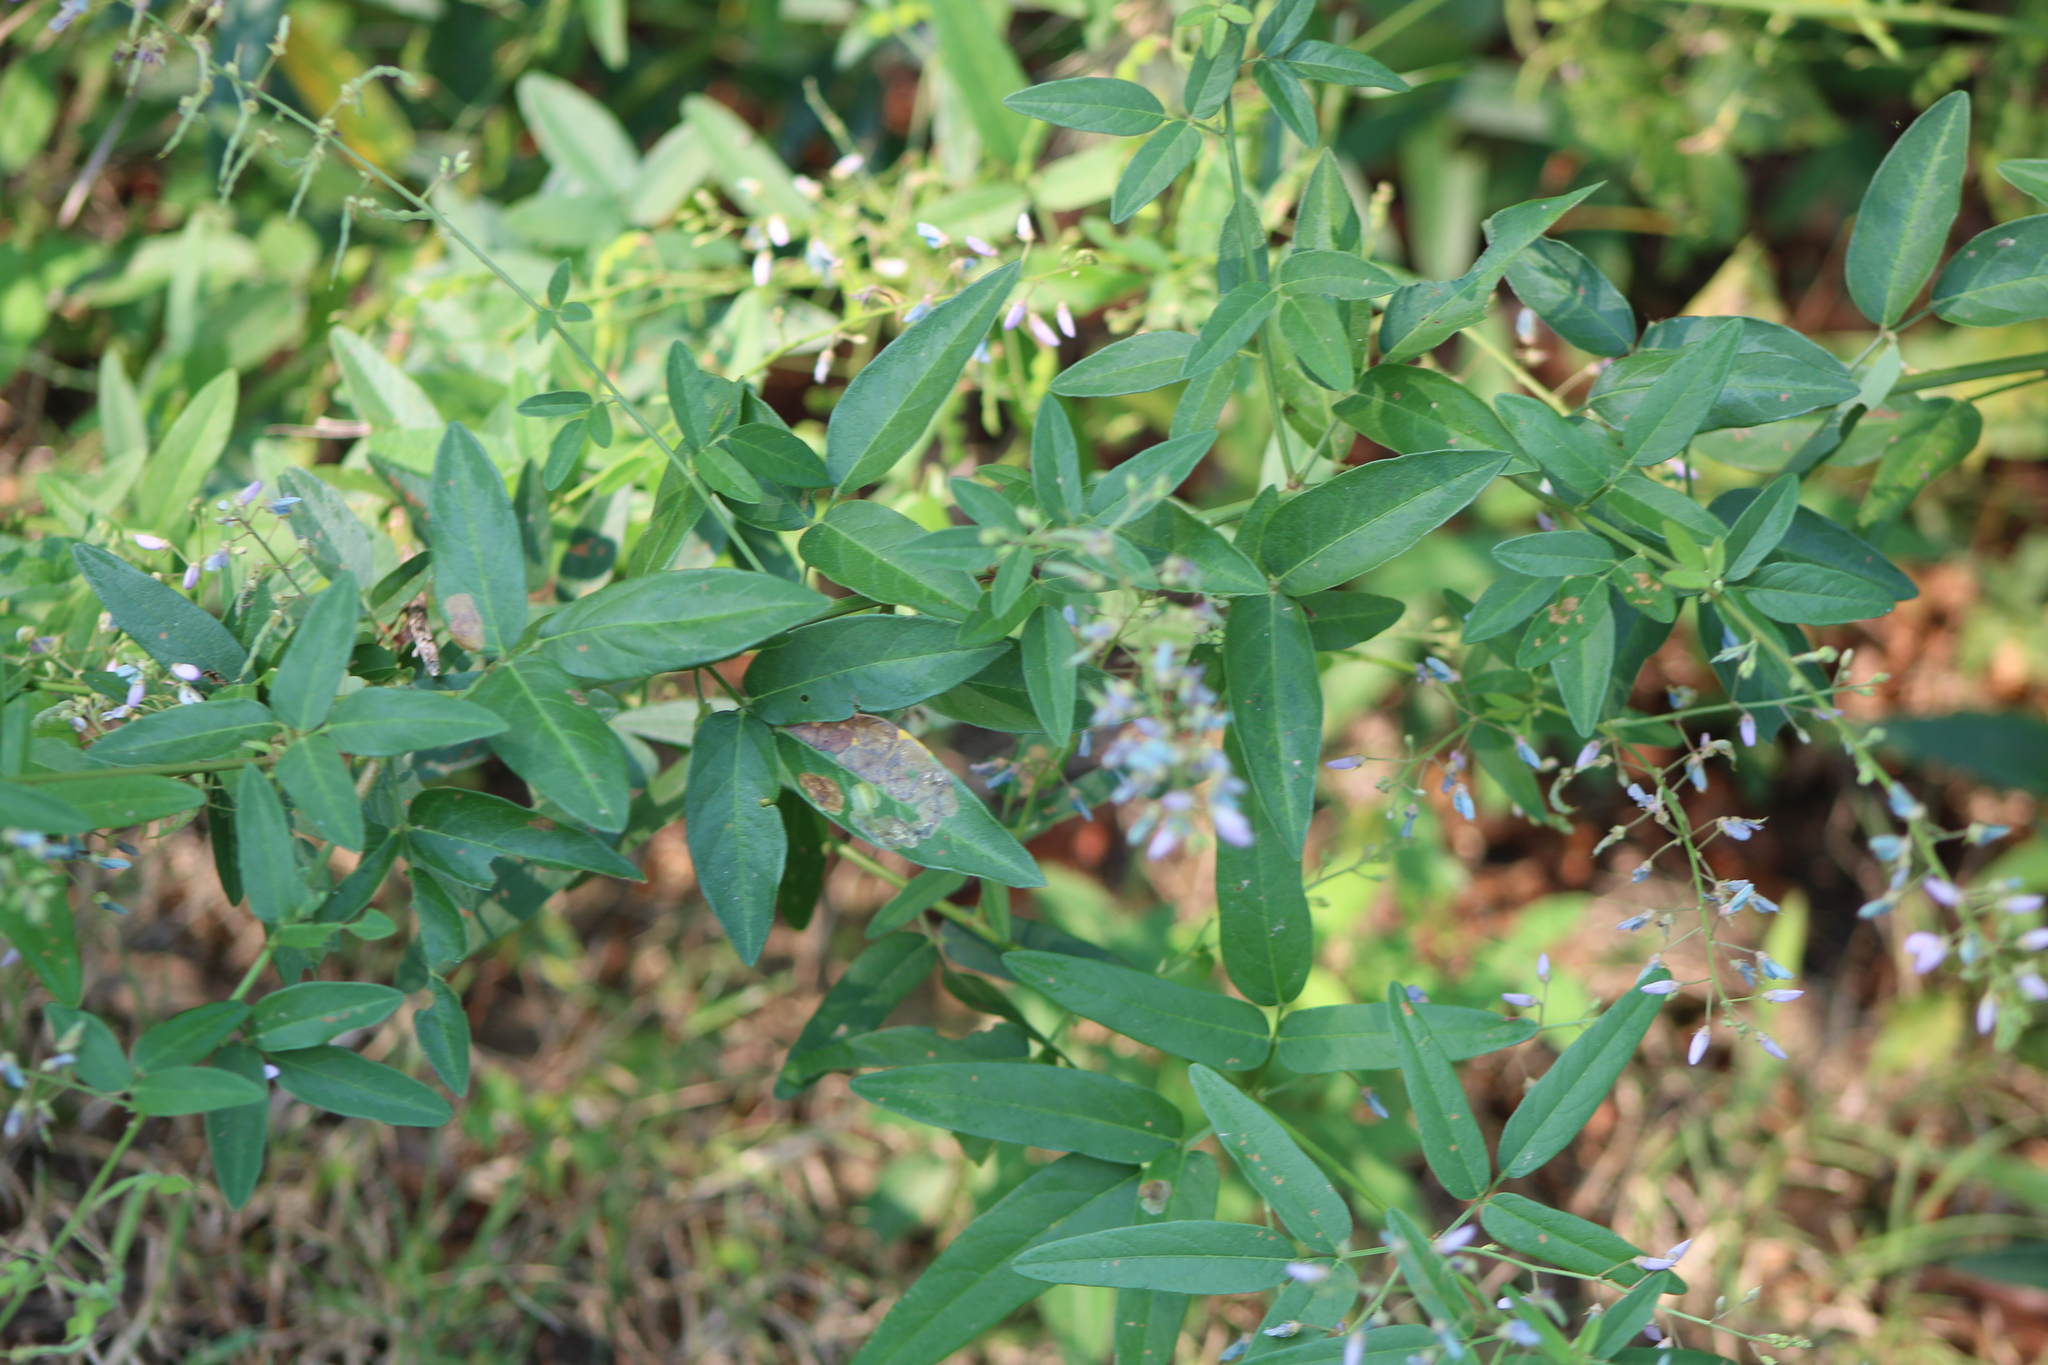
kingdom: Plantae
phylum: Tracheophyta
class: Magnoliopsida
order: Fabales
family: Fabaceae
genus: Desmodium
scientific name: Desmodium paniculatum
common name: Panicled tick-clover
